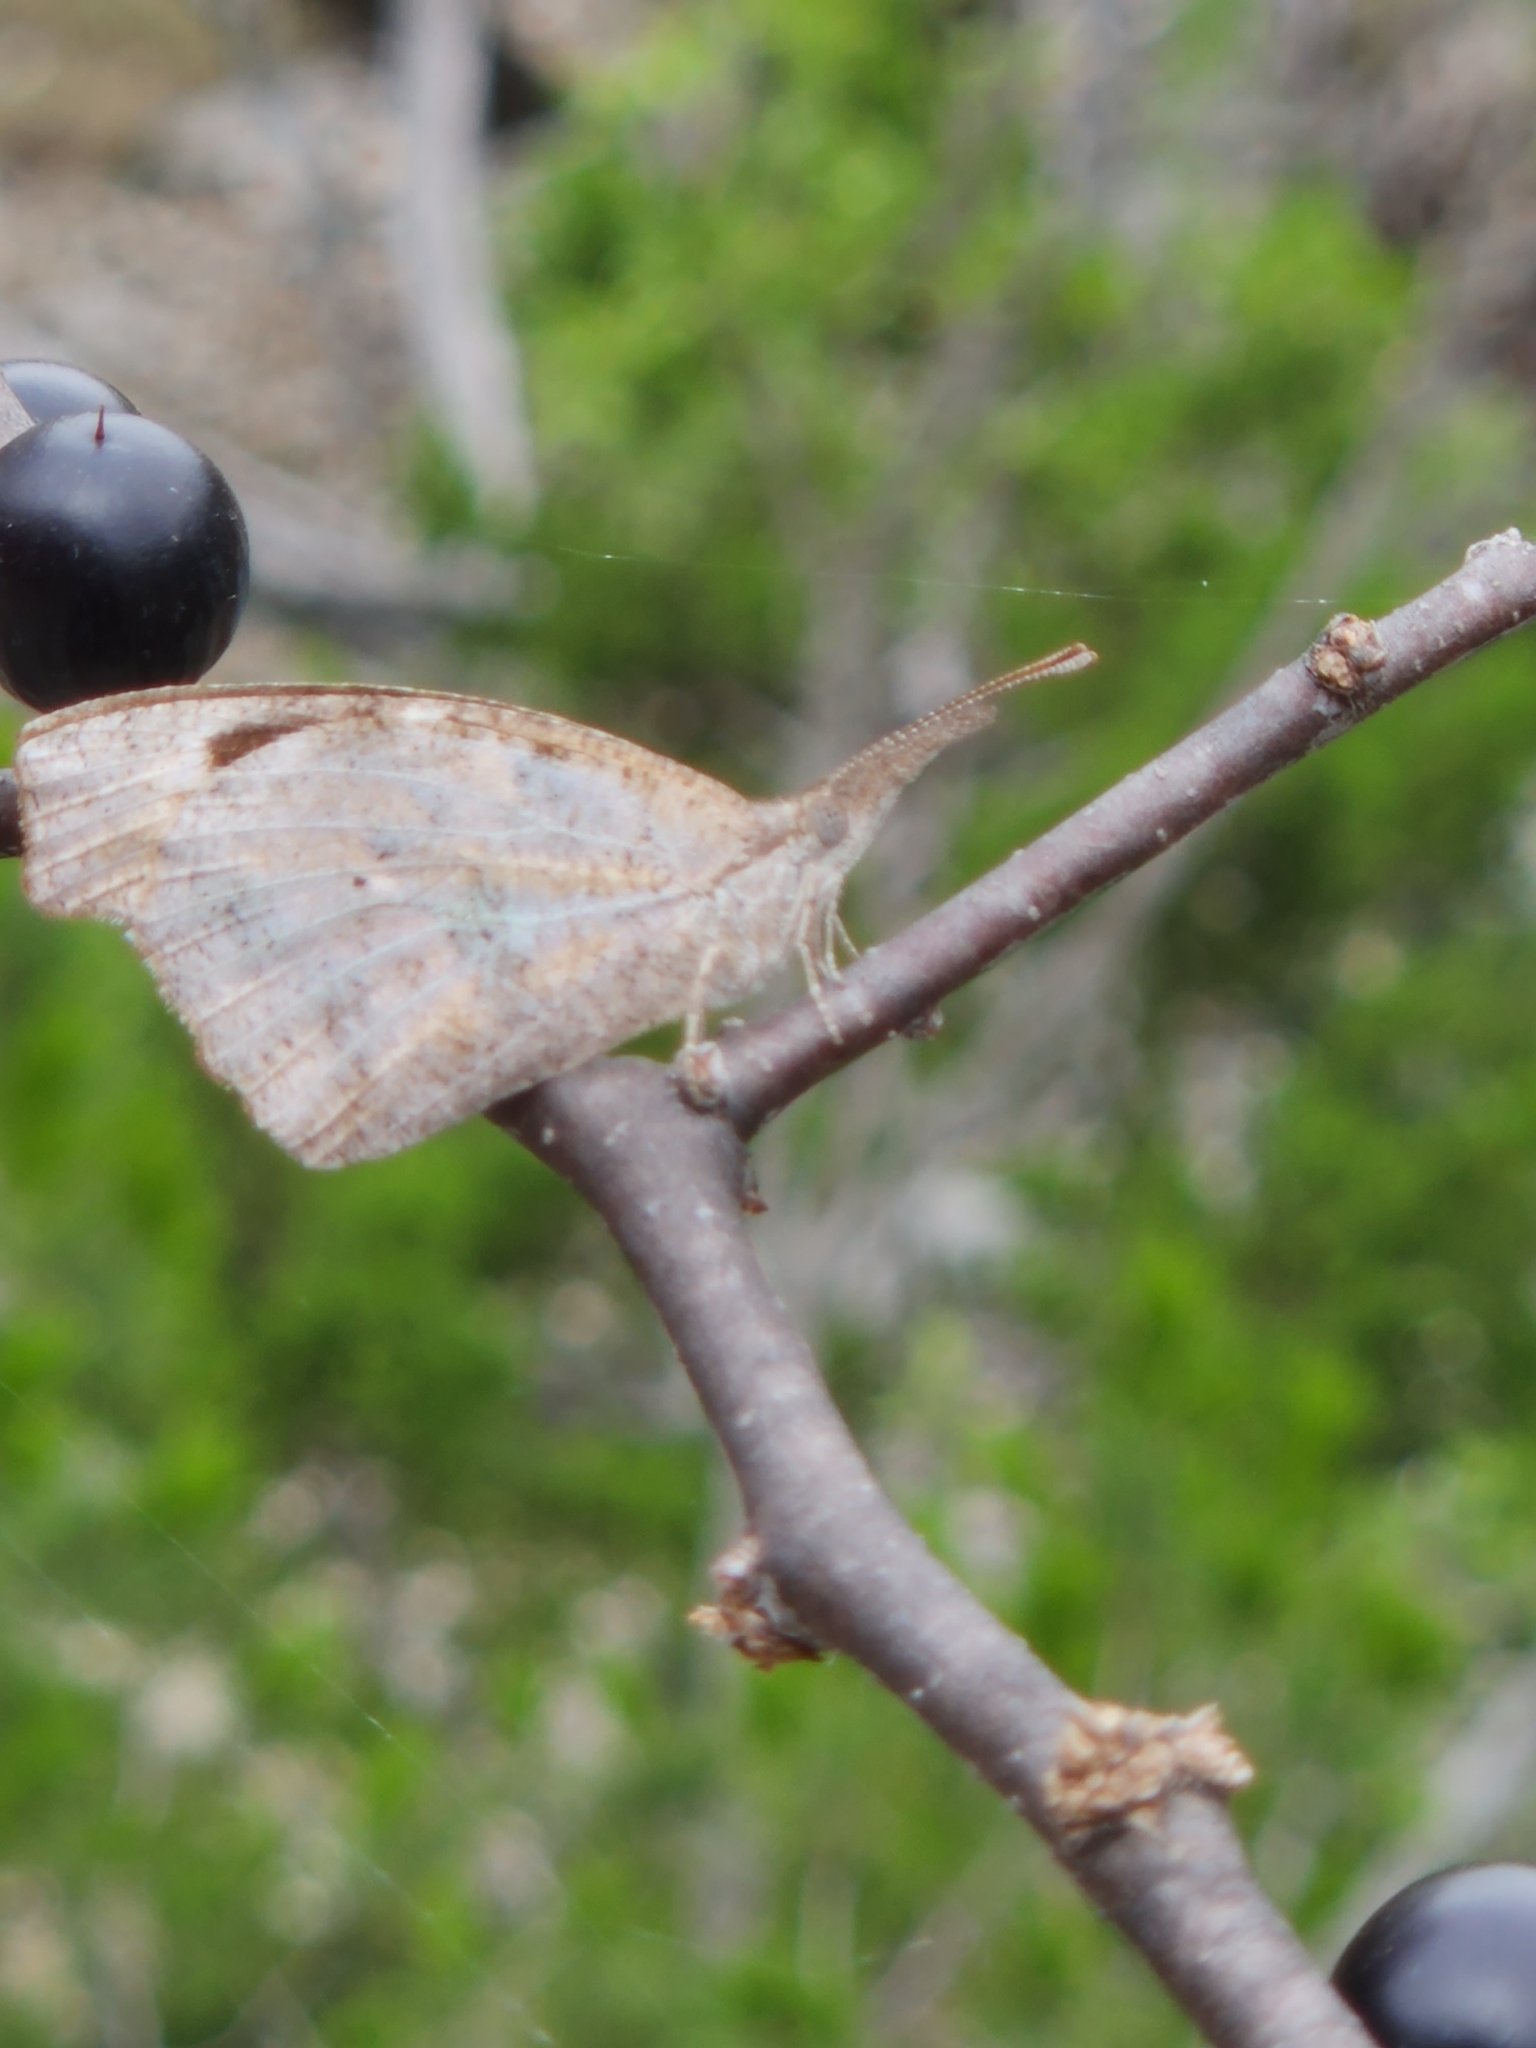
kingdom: Animalia
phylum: Arthropoda
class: Insecta
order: Lepidoptera
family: Nymphalidae
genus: Libytheana
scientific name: Libytheana carinenta
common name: American snout
